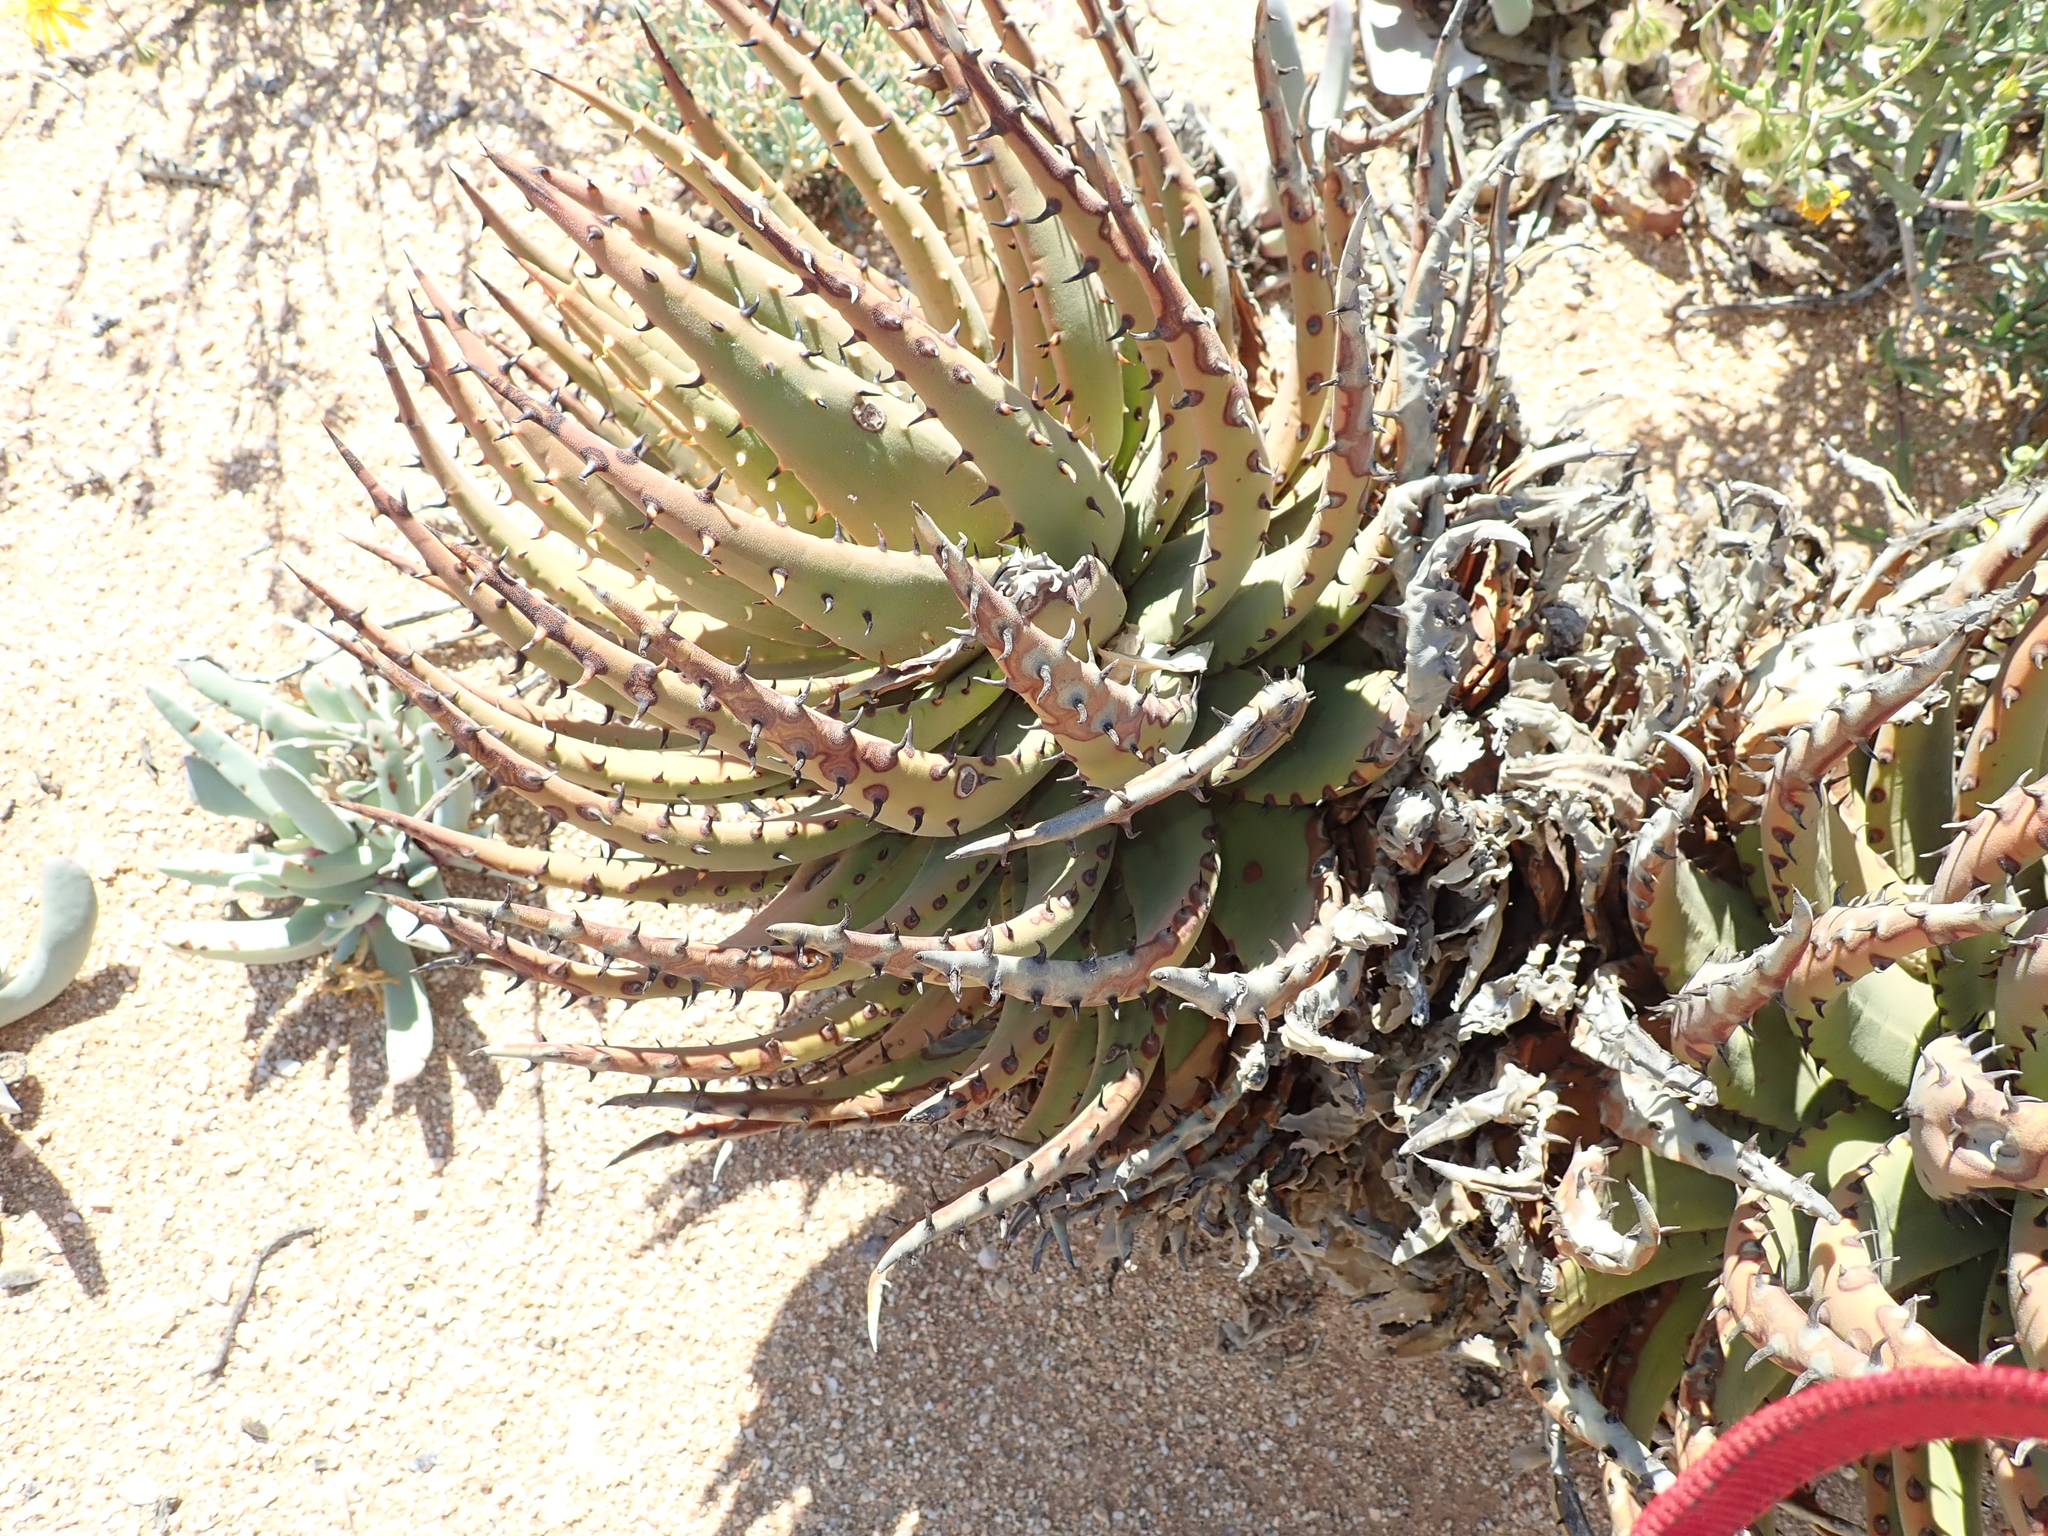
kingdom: Plantae
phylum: Tracheophyta
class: Liliopsida
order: Asparagales
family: Asphodelaceae
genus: Aloe
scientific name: Aloe melanacantha
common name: Black thorn aloe
